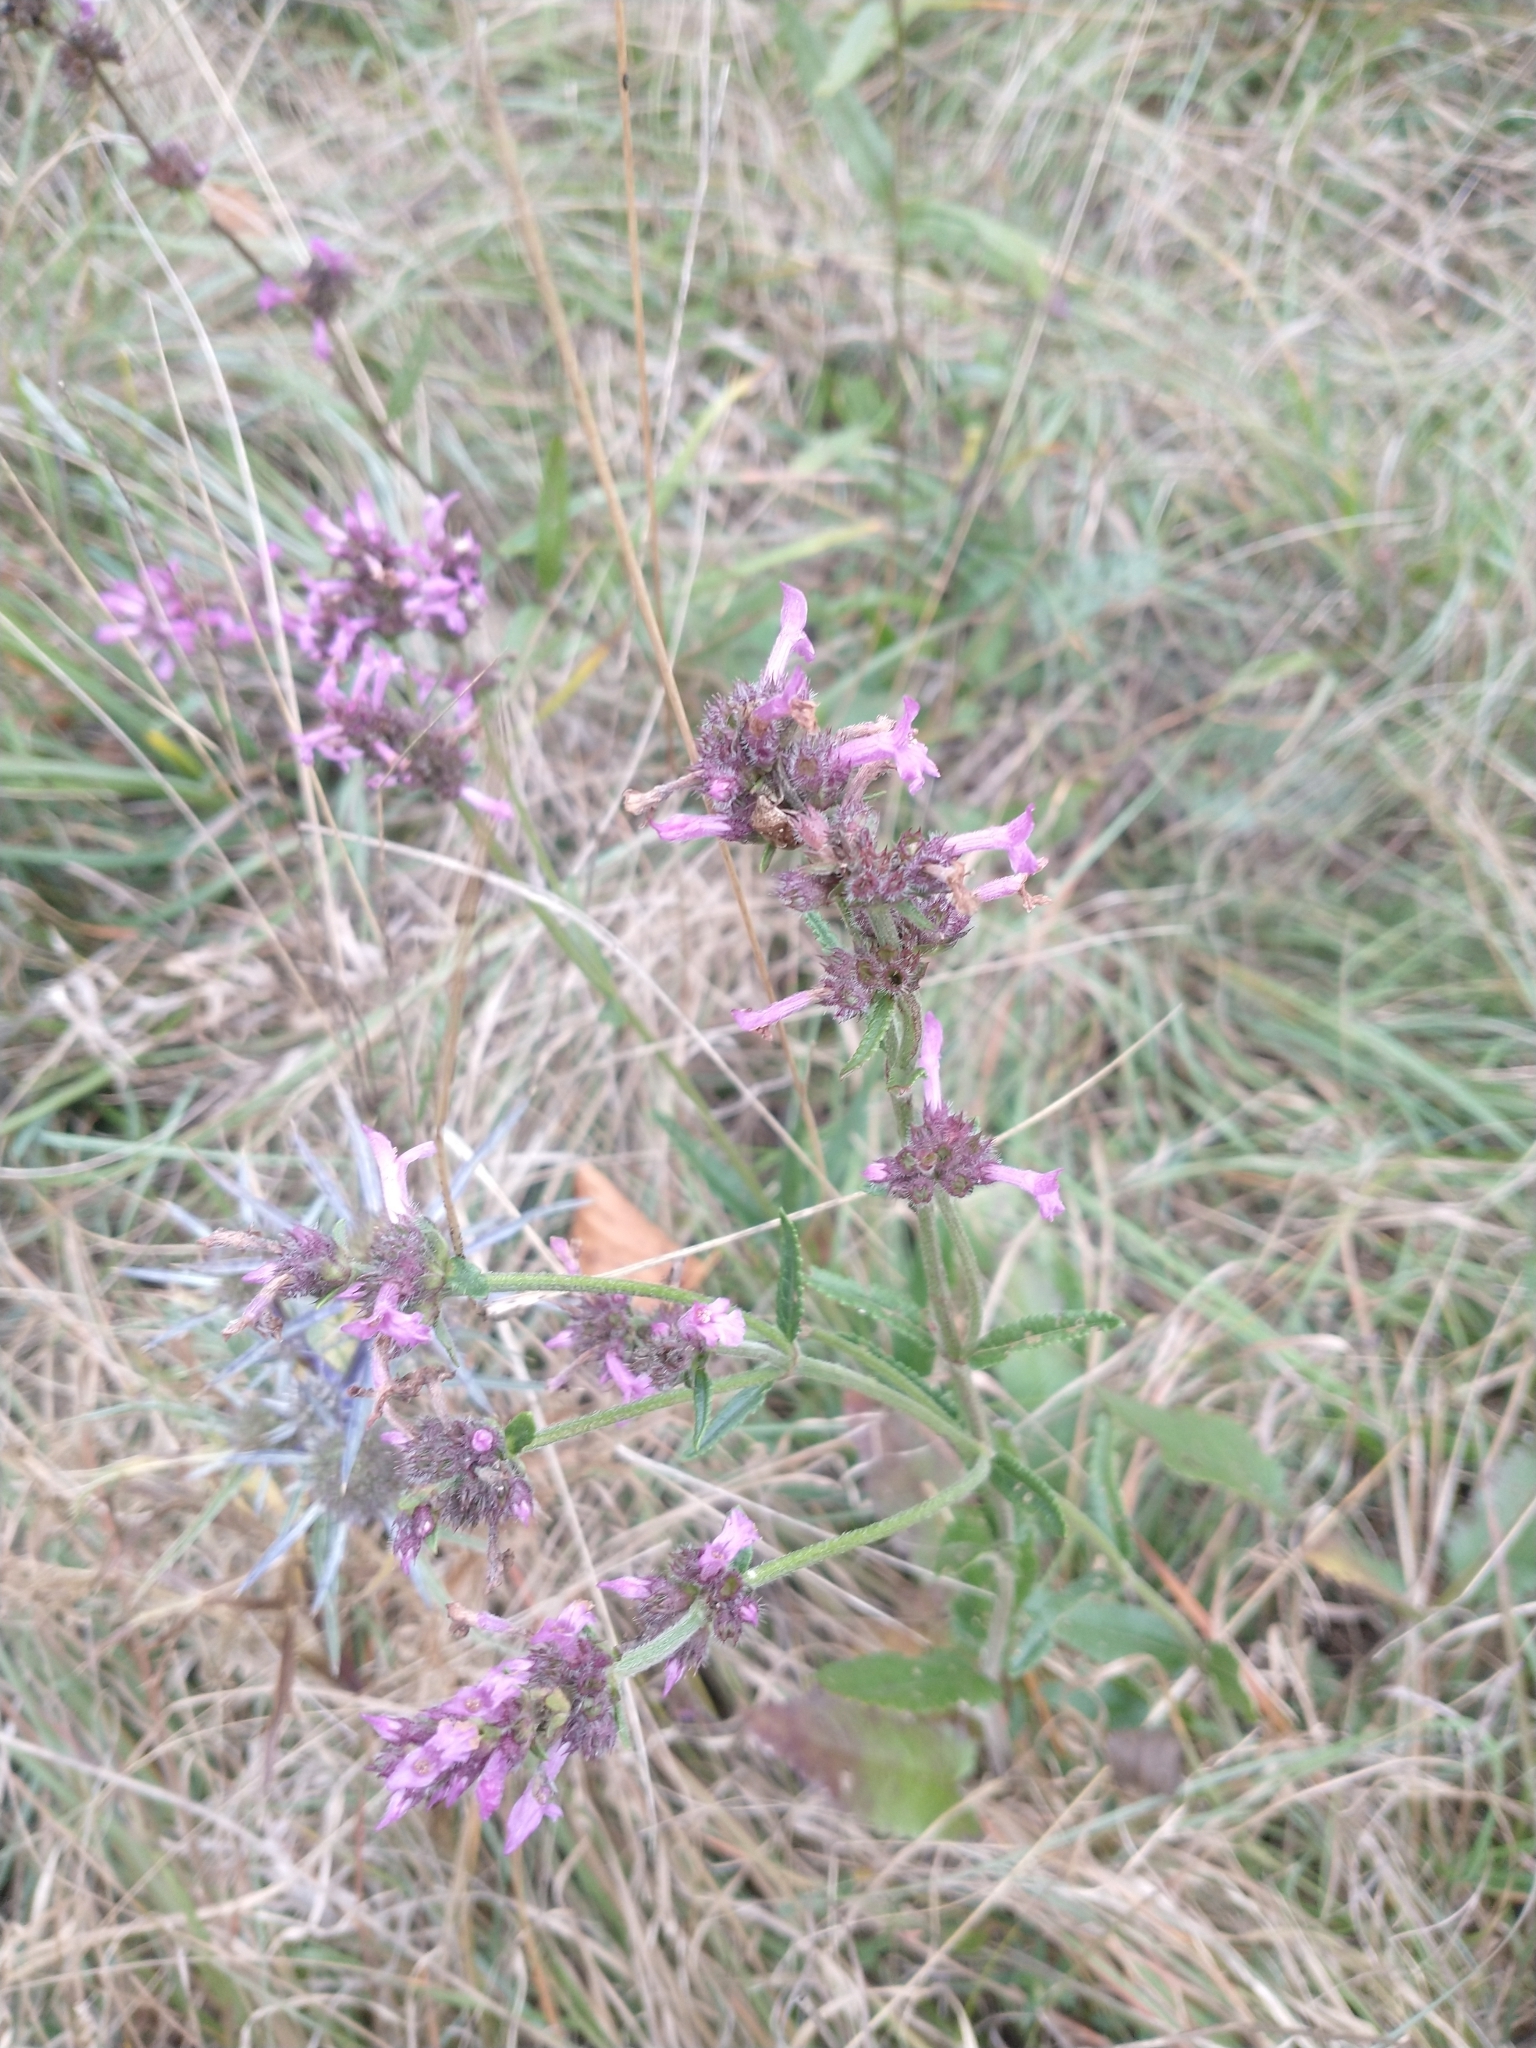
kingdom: Plantae
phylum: Tracheophyta
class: Magnoliopsida
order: Lamiales
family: Lamiaceae
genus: Betonica
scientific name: Betonica officinalis
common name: Bishop's-wort
